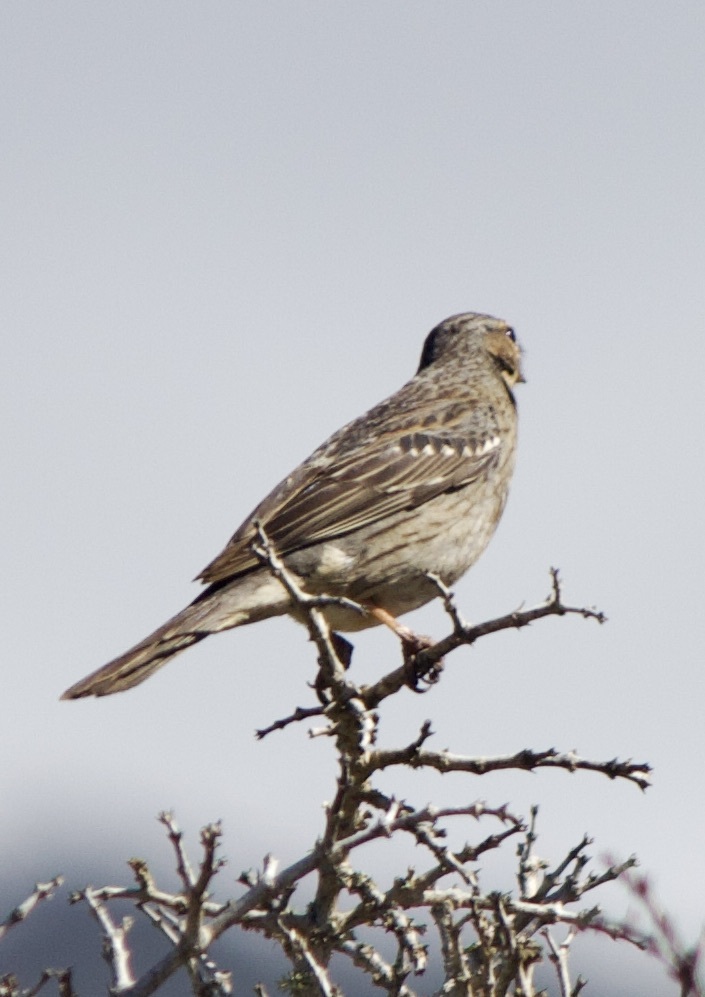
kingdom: Animalia
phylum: Chordata
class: Aves
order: Passeriformes
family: Thraupidae
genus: Rhopospina
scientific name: Rhopospina fruticeti
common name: Mourning sierra finch
